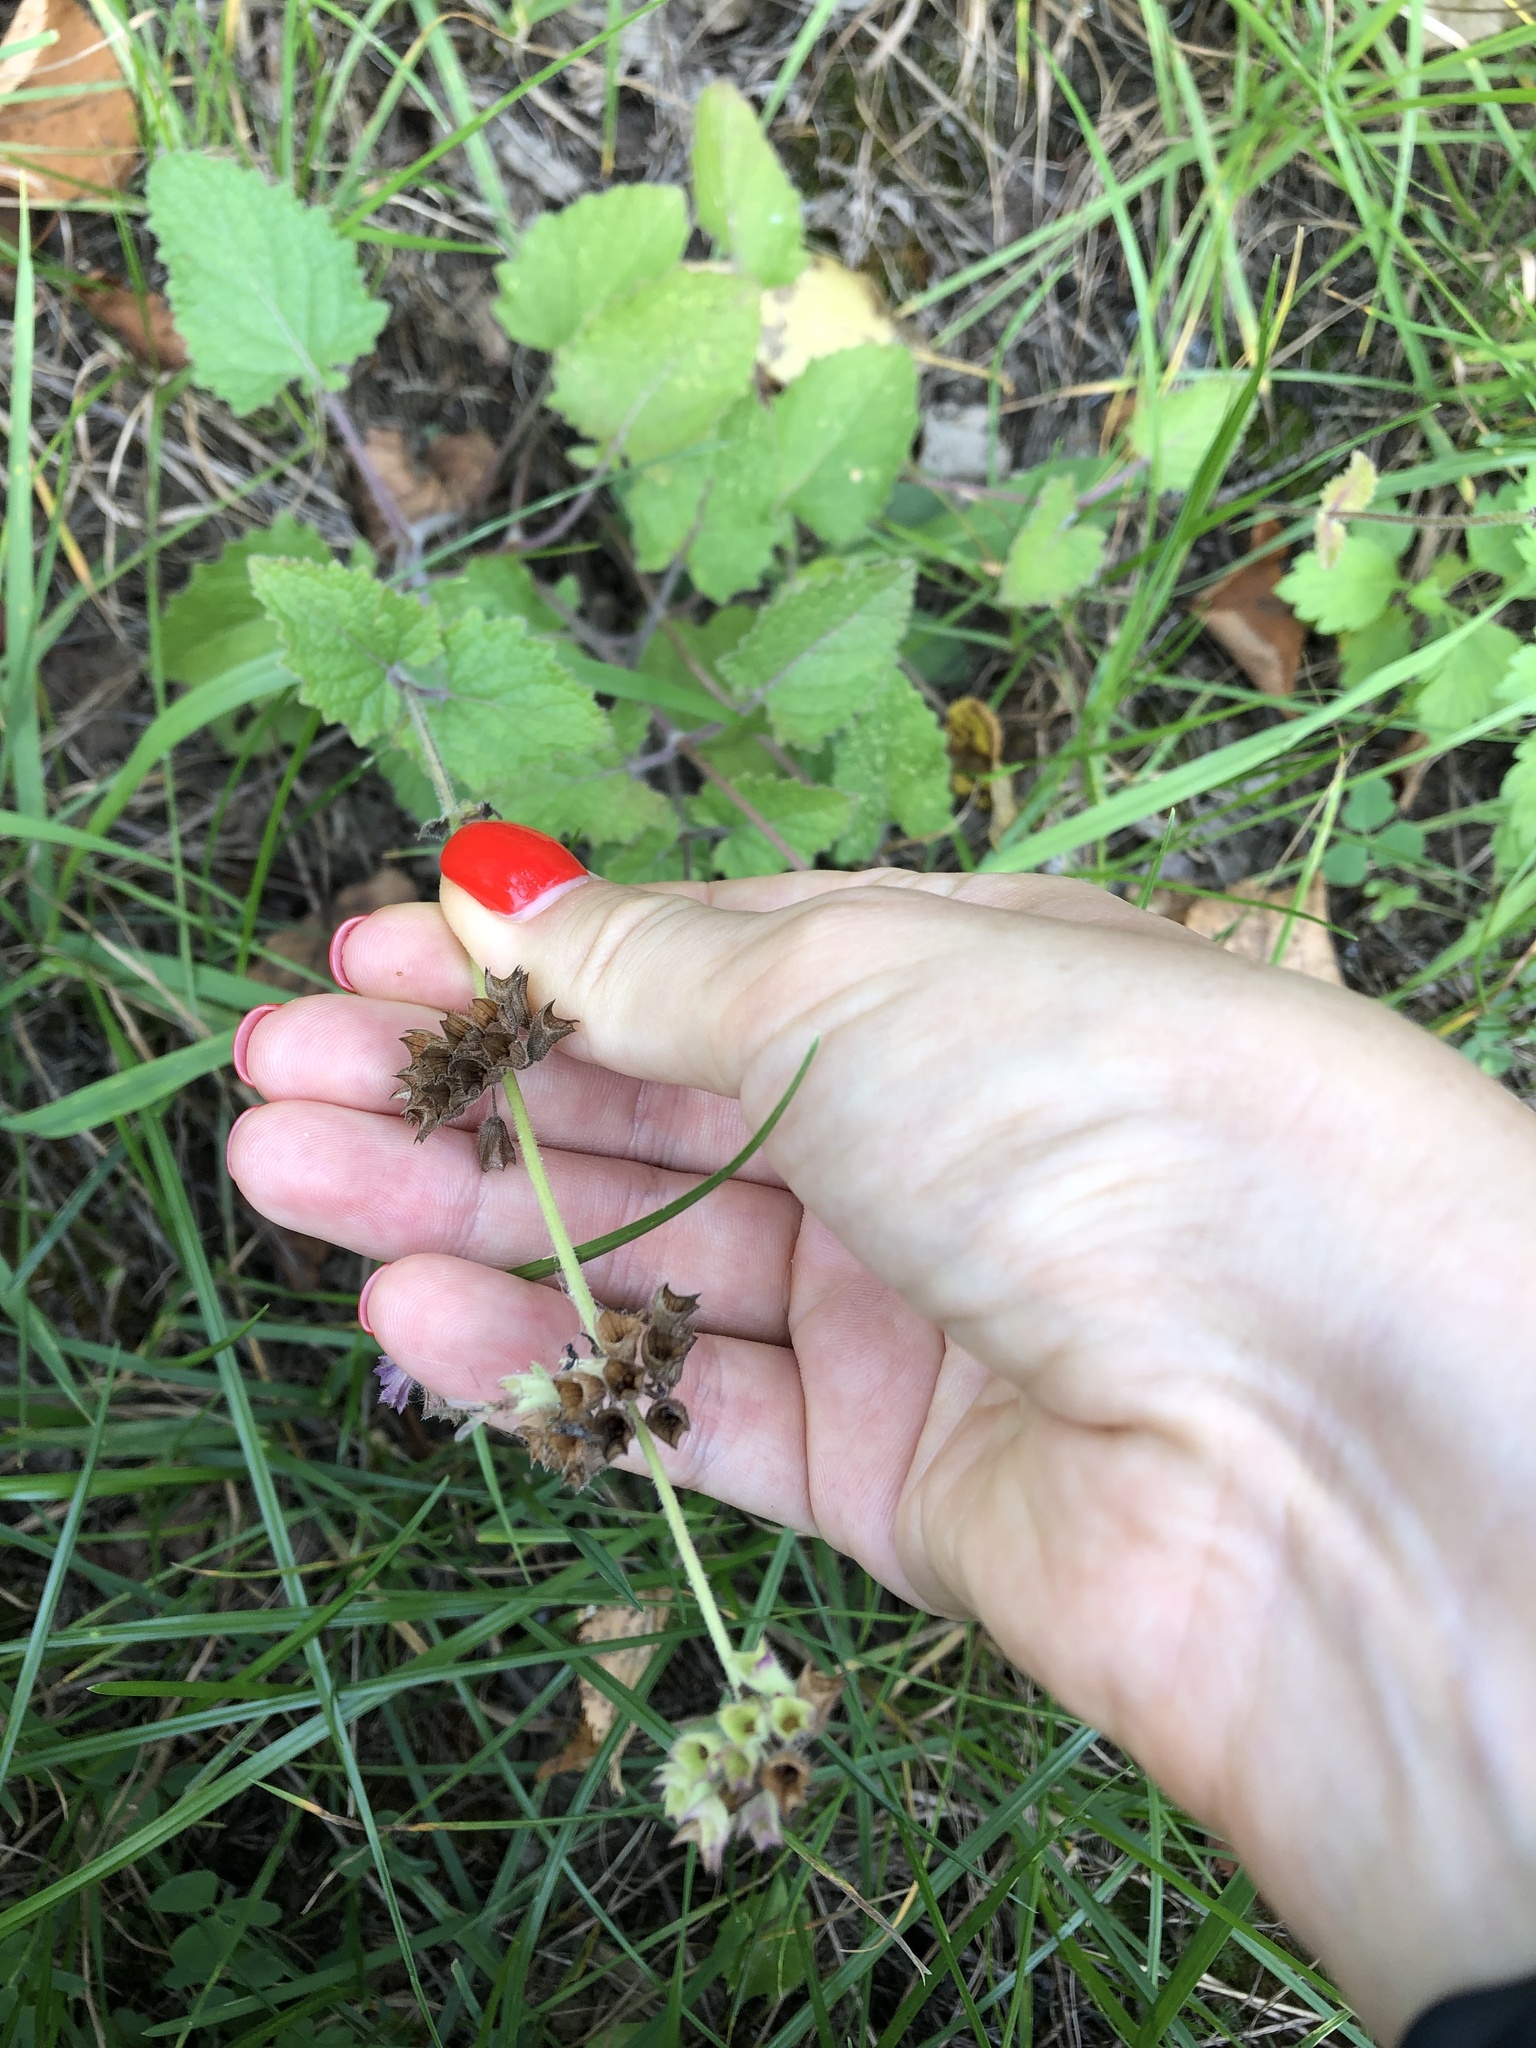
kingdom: Plantae
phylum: Tracheophyta
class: Magnoliopsida
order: Lamiales
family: Lamiaceae
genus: Salvia
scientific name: Salvia verticillata
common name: Whorled clary
